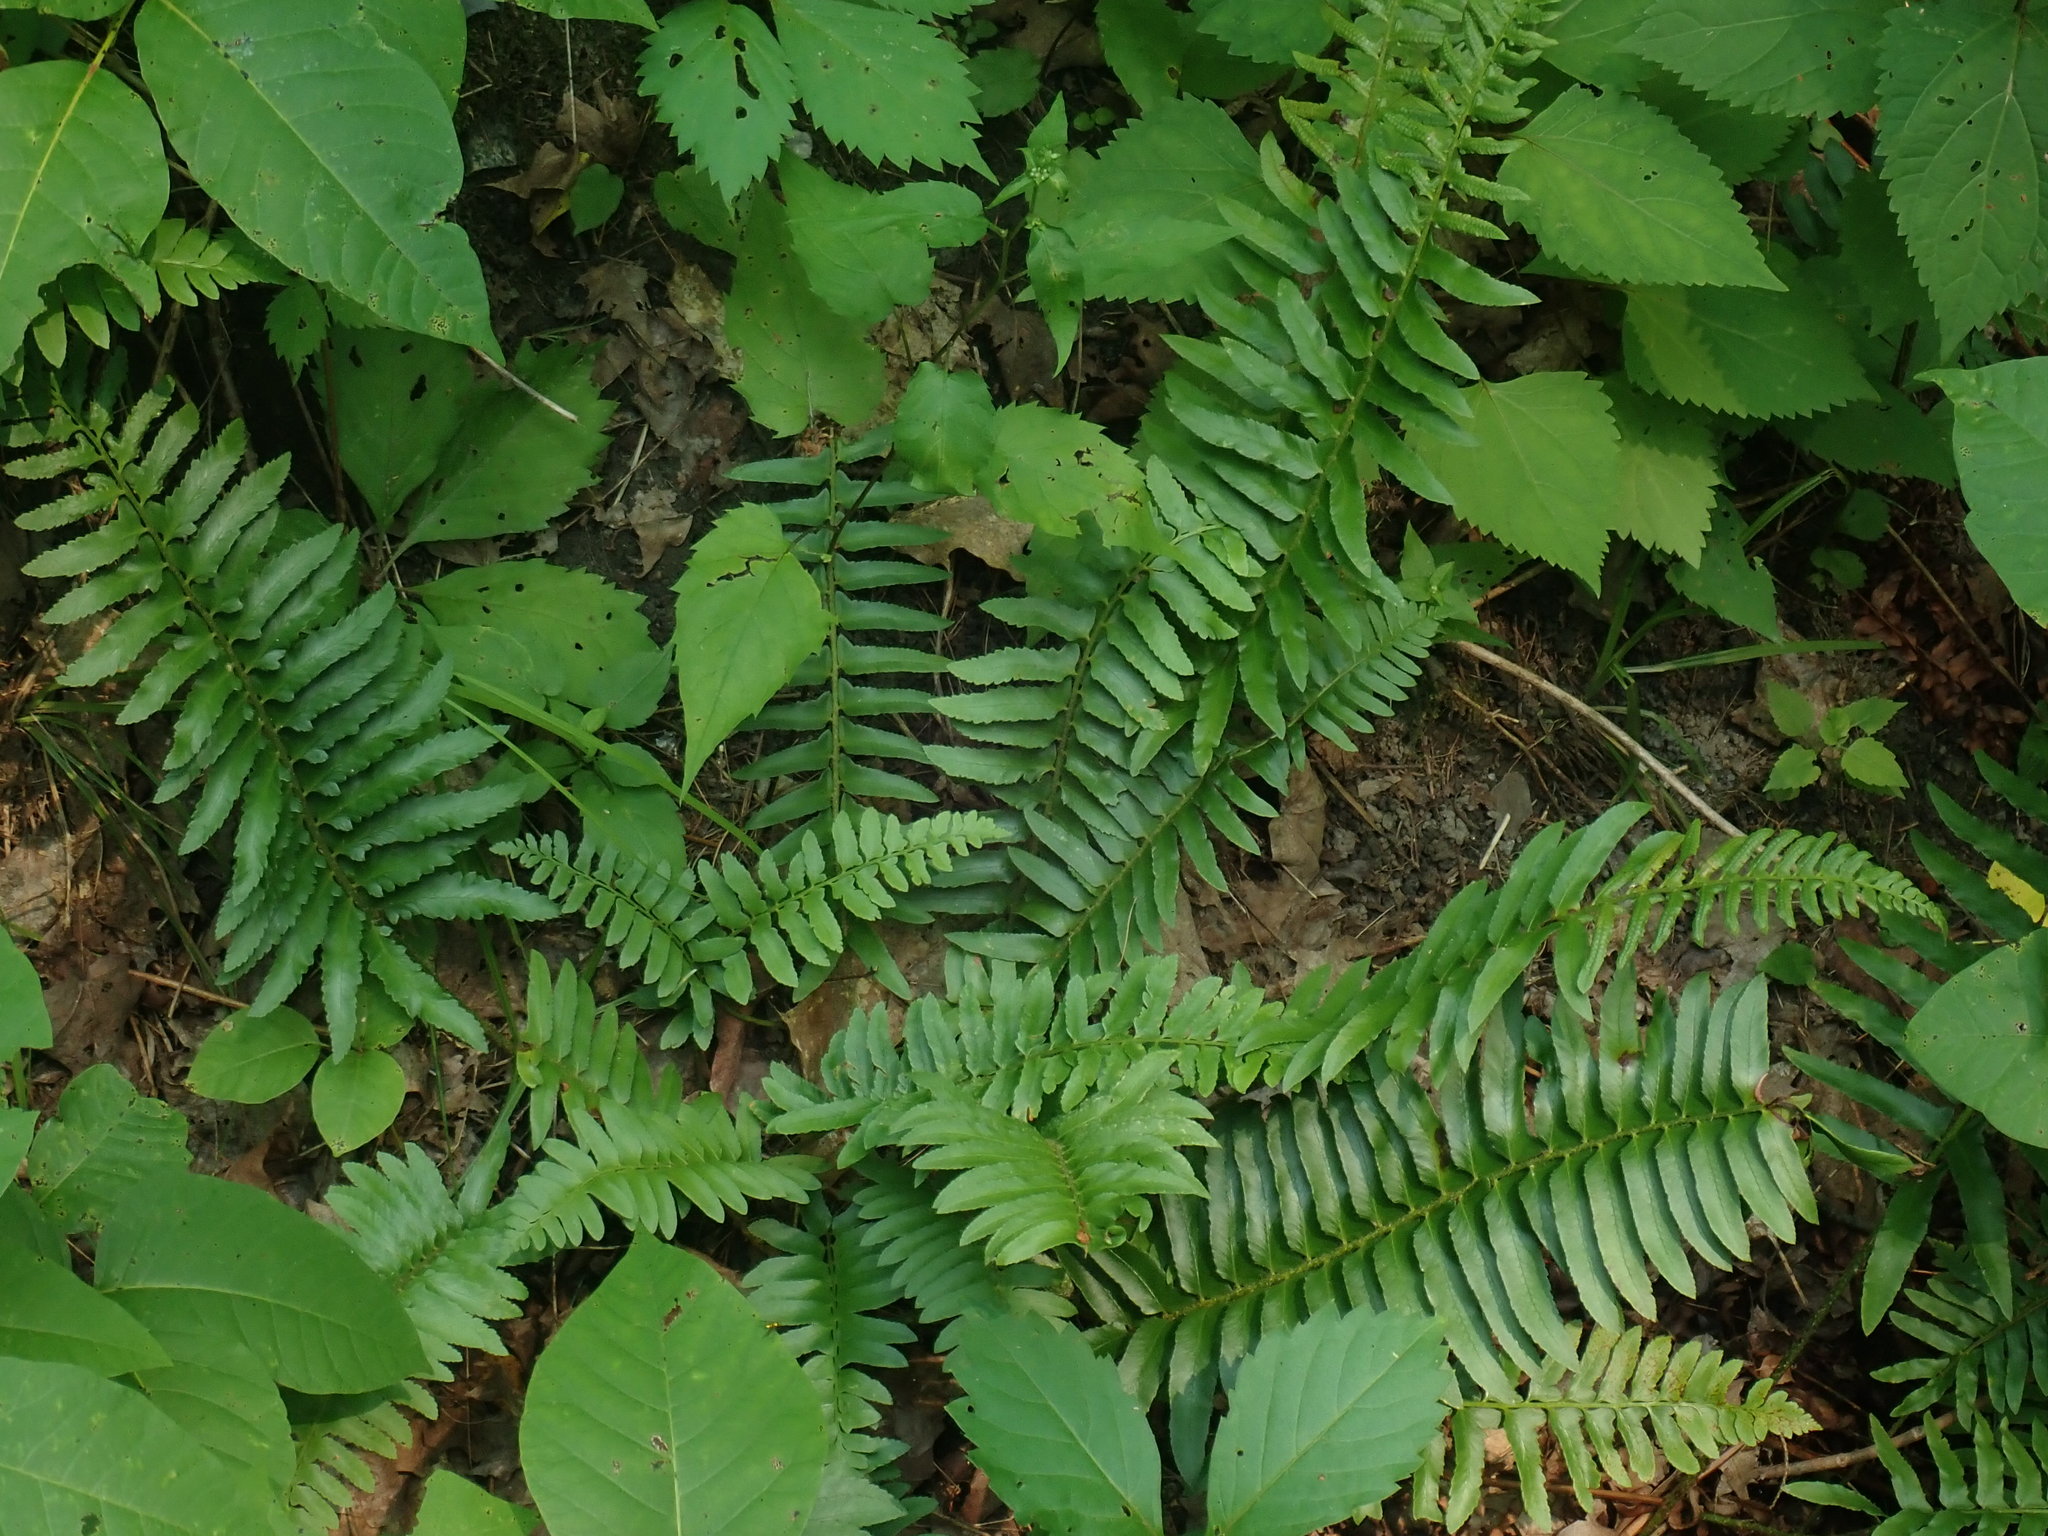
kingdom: Plantae
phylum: Tracheophyta
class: Polypodiopsida
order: Polypodiales
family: Dryopteridaceae
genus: Polystichum
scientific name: Polystichum acrostichoides
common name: Christmas fern
